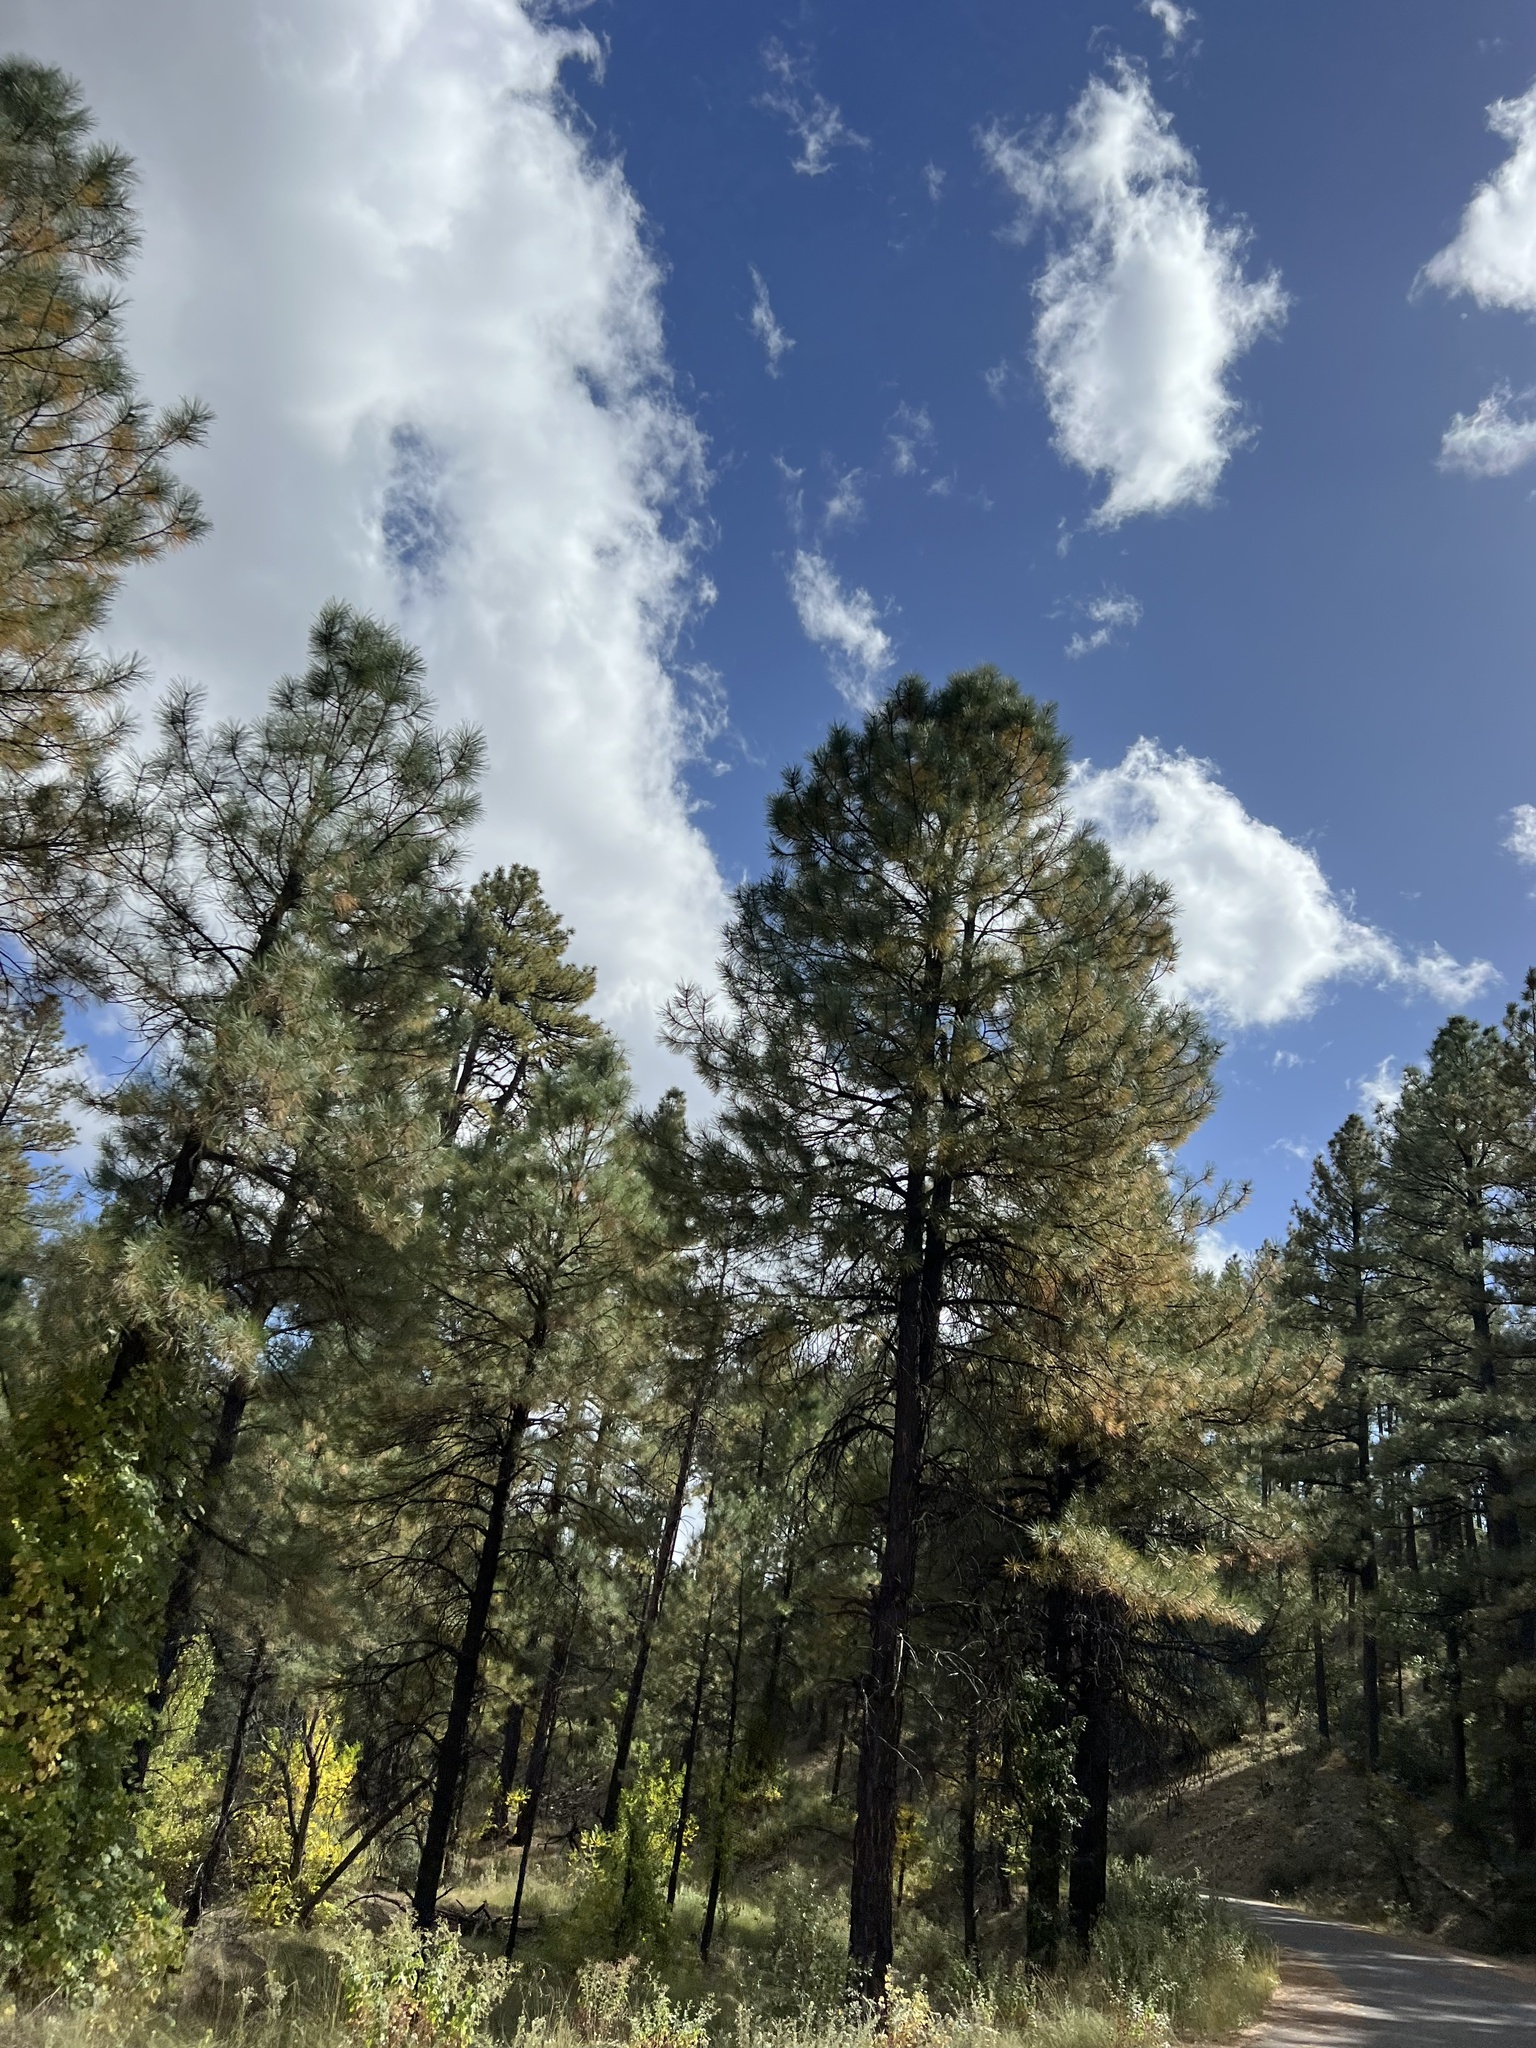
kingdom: Plantae
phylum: Tracheophyta
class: Pinopsida
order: Pinales
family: Pinaceae
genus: Pinus
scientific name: Pinus ponderosa
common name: Western yellow-pine
